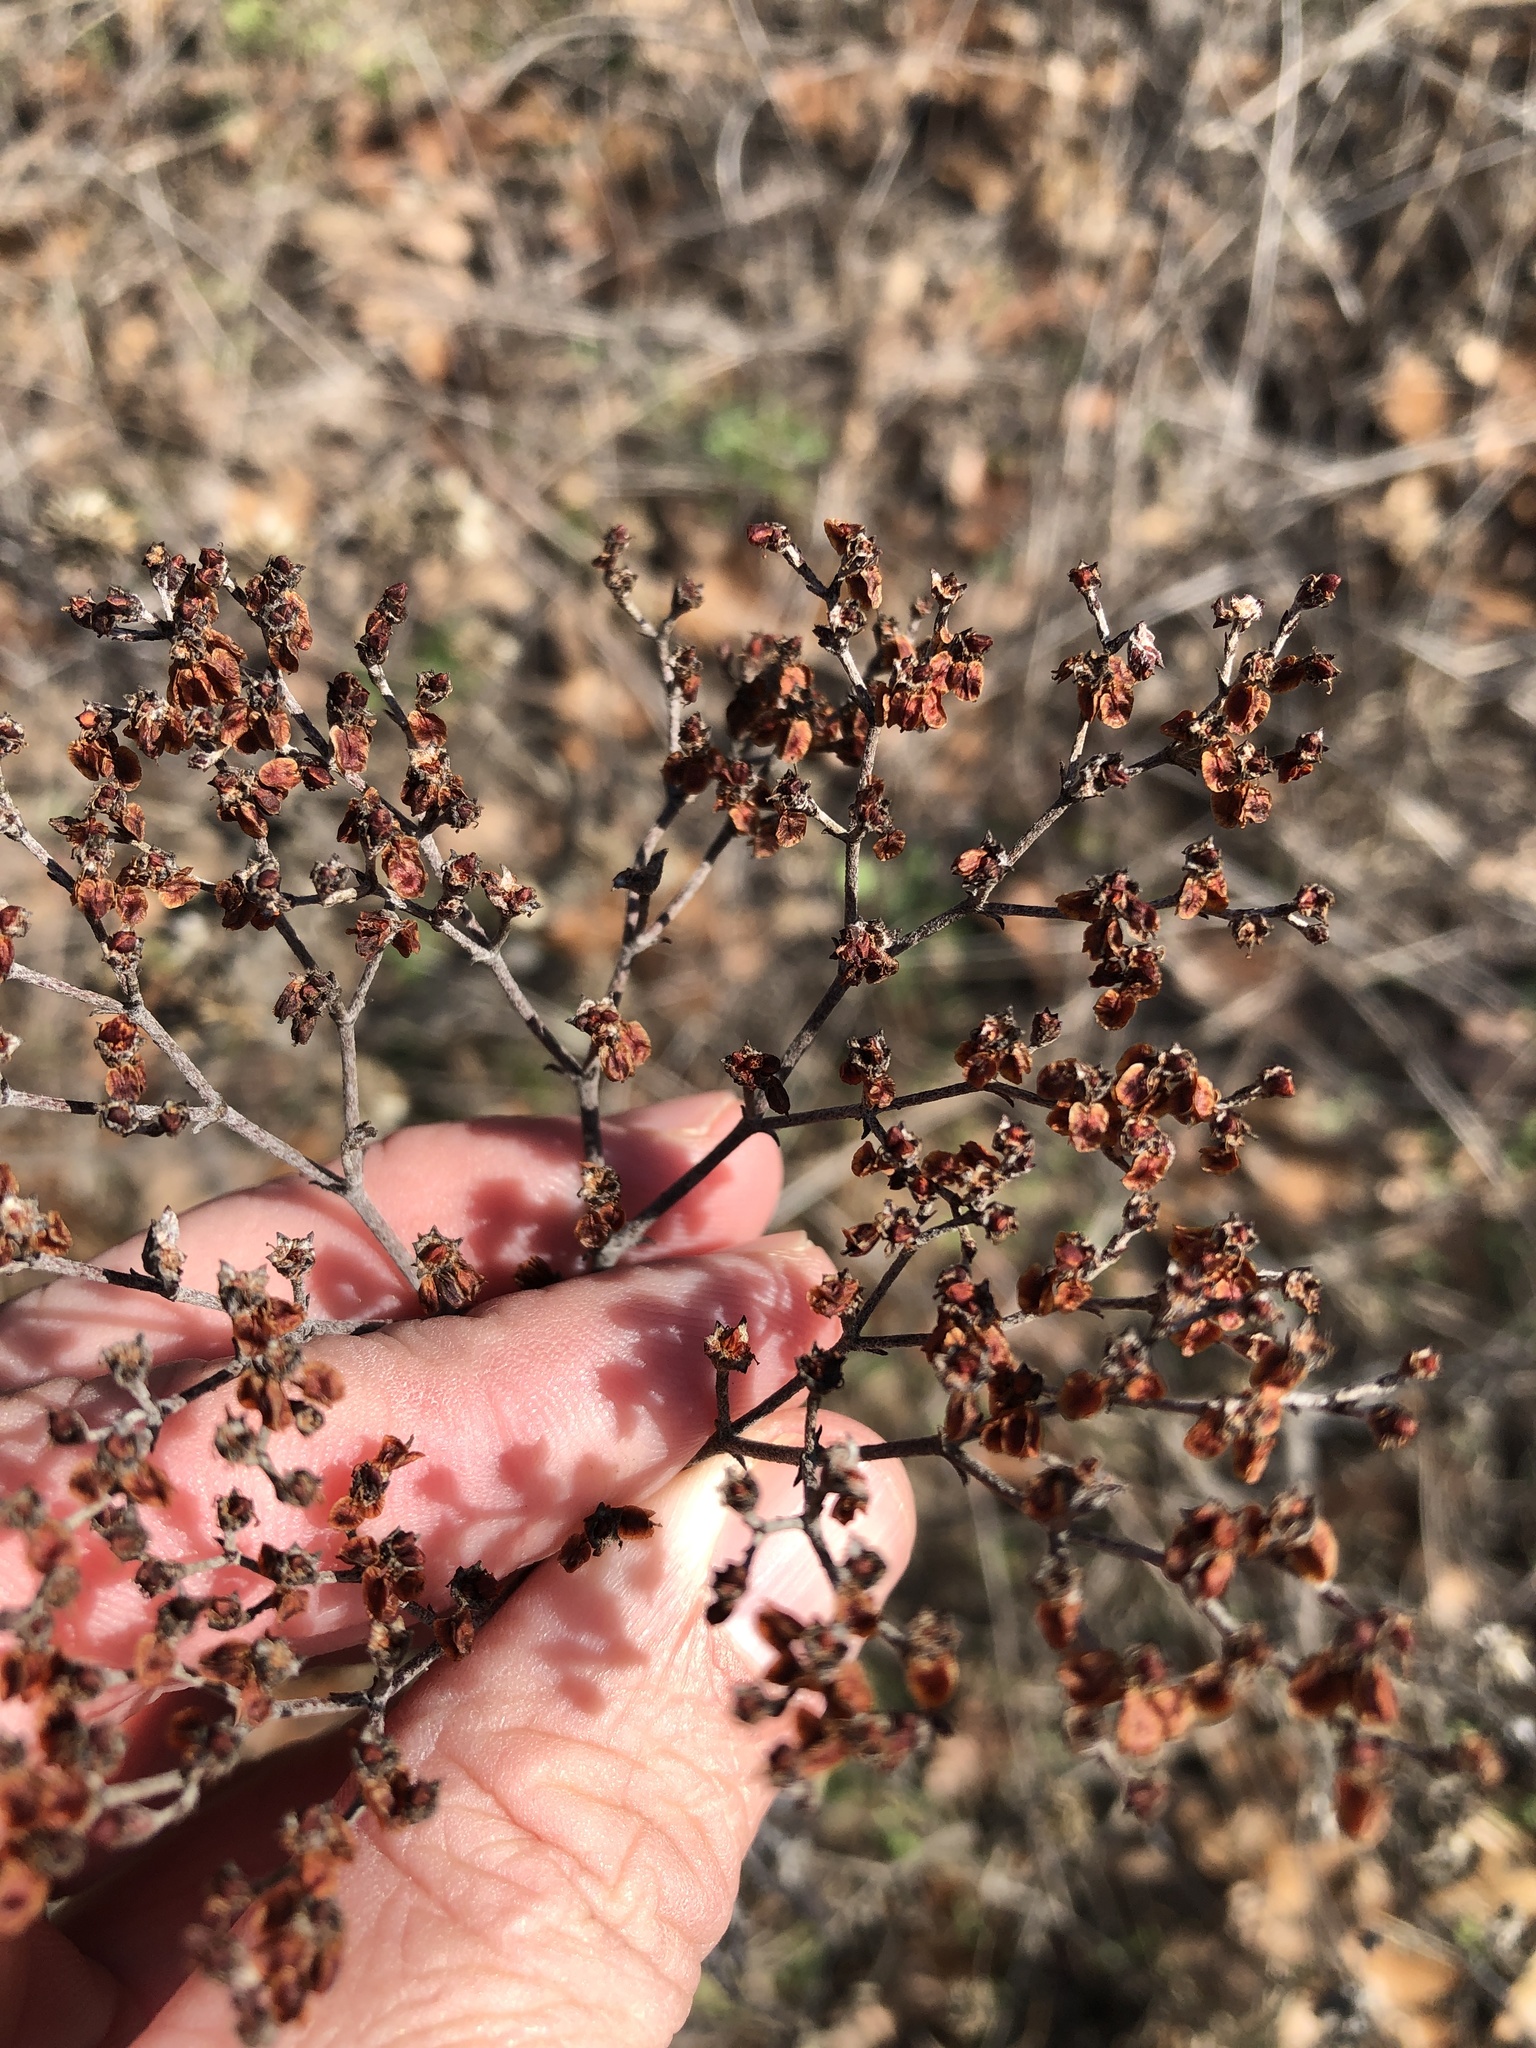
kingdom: Plantae
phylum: Tracheophyta
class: Magnoliopsida
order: Caryophyllales
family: Polygonaceae
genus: Eriogonum
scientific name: Eriogonum multiflorum
